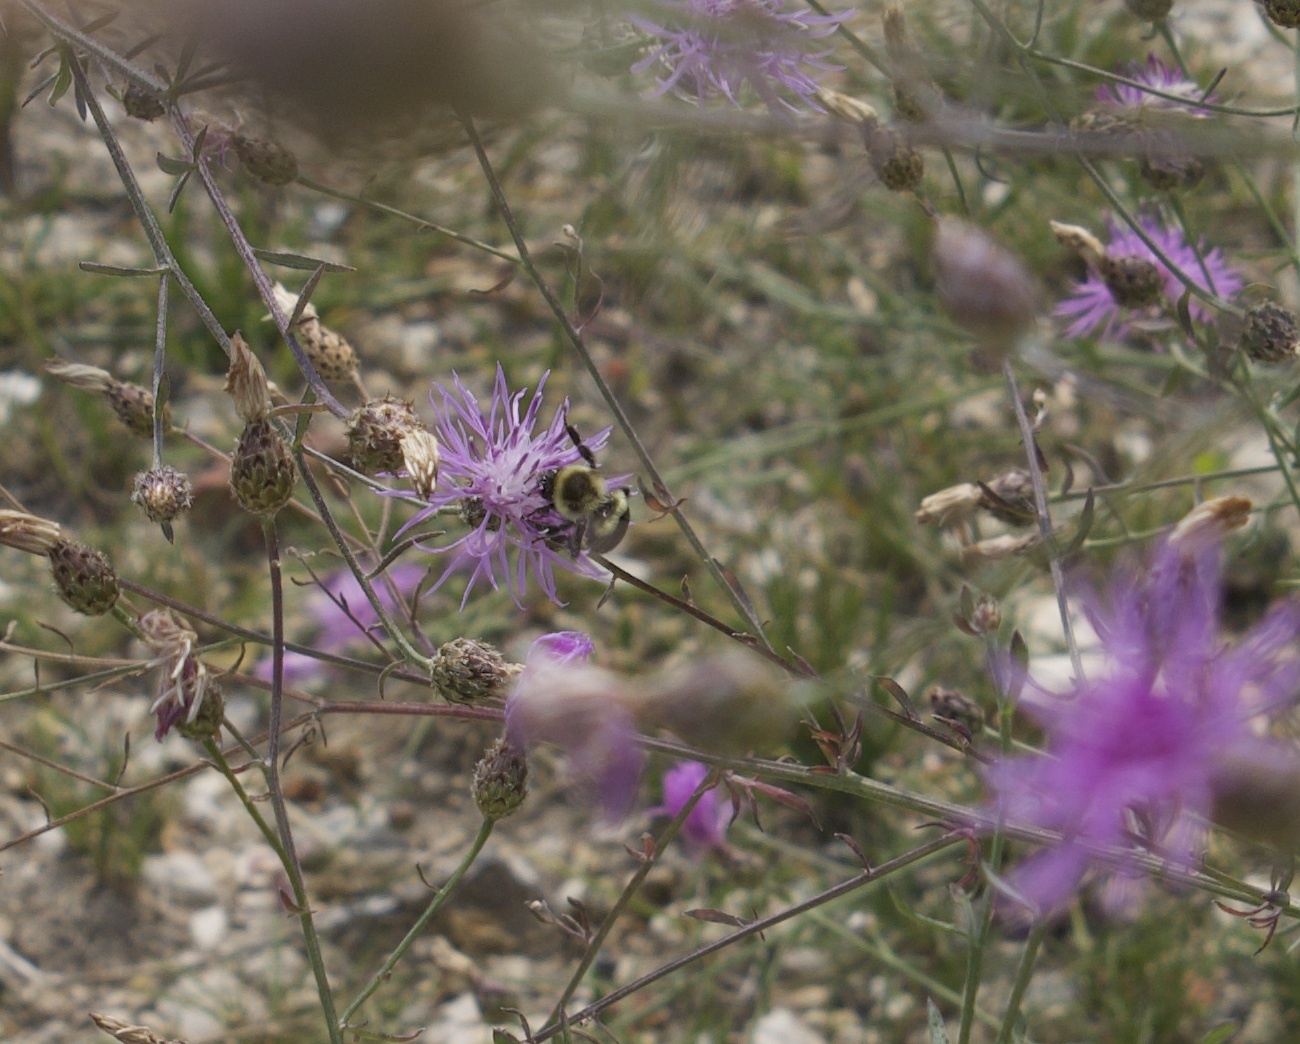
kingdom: Animalia
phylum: Arthropoda
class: Insecta
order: Hymenoptera
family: Apidae
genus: Bombus
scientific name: Bombus impatiens
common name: Common eastern bumble bee
